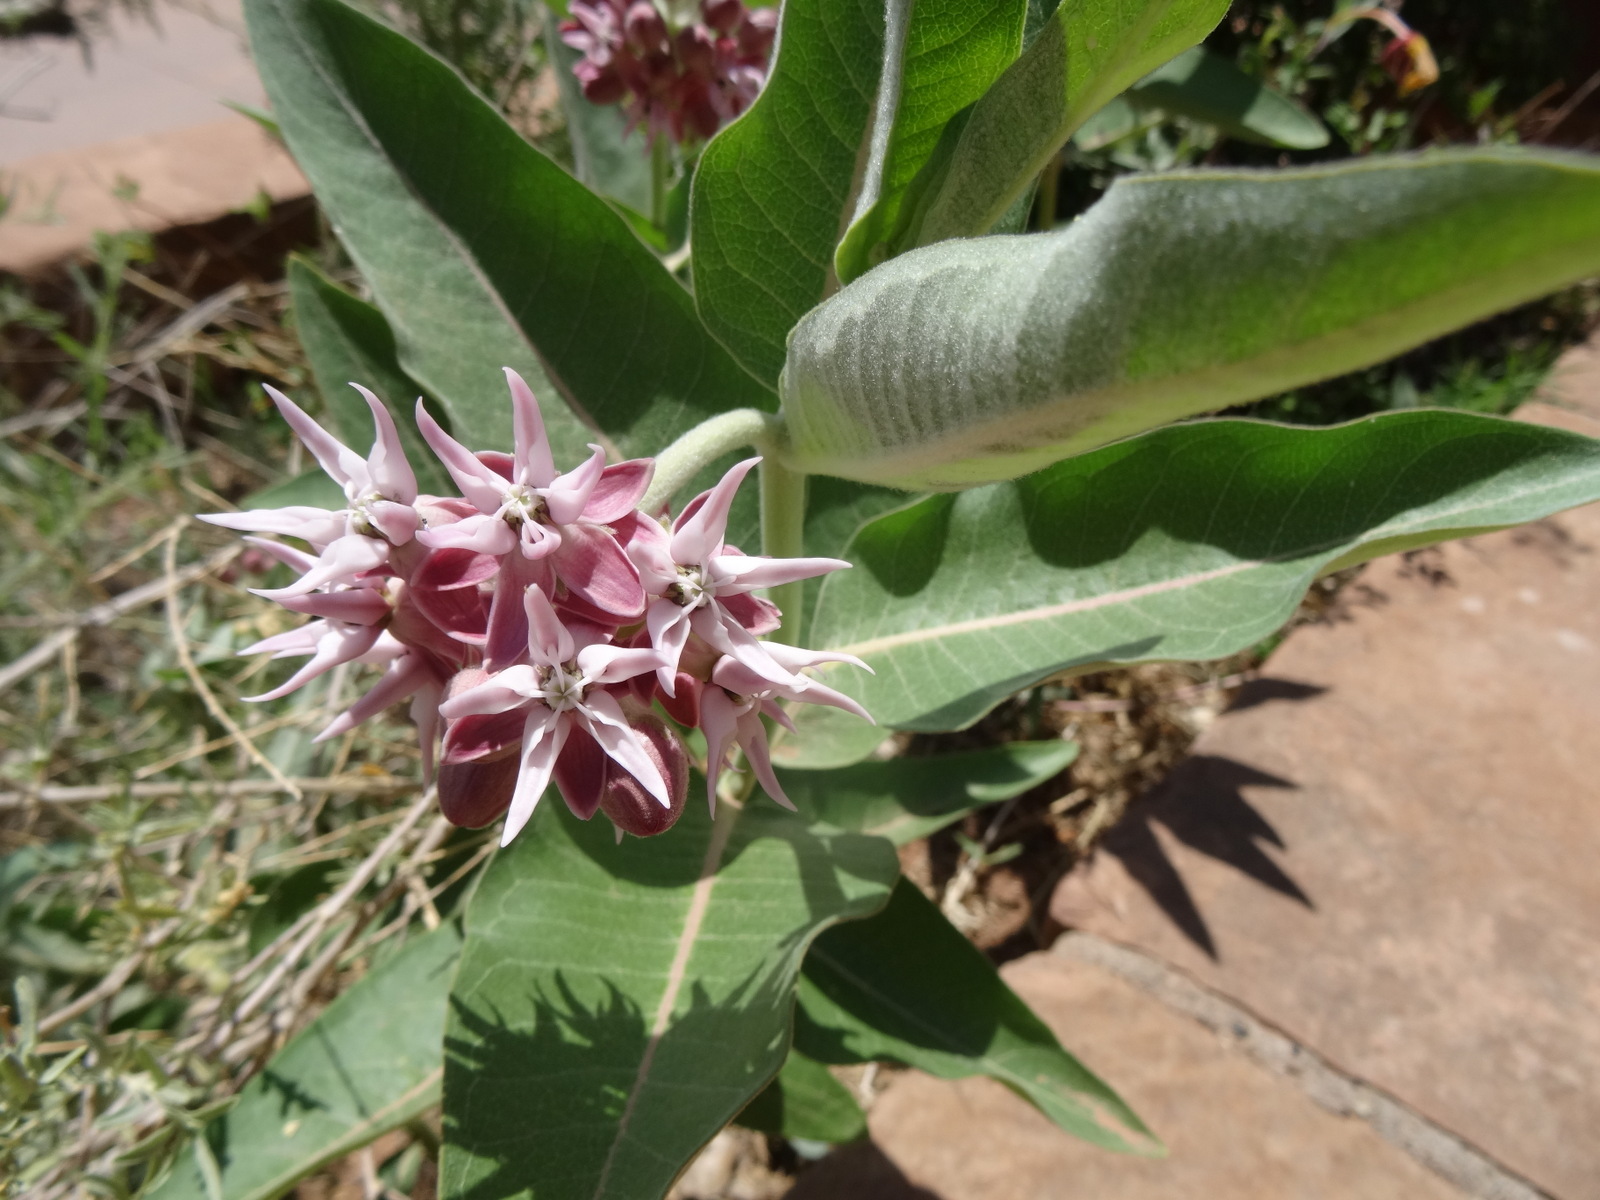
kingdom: Plantae
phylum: Tracheophyta
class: Magnoliopsida
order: Gentianales
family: Apocynaceae
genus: Asclepias
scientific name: Asclepias speciosa
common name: Showy milkweed
